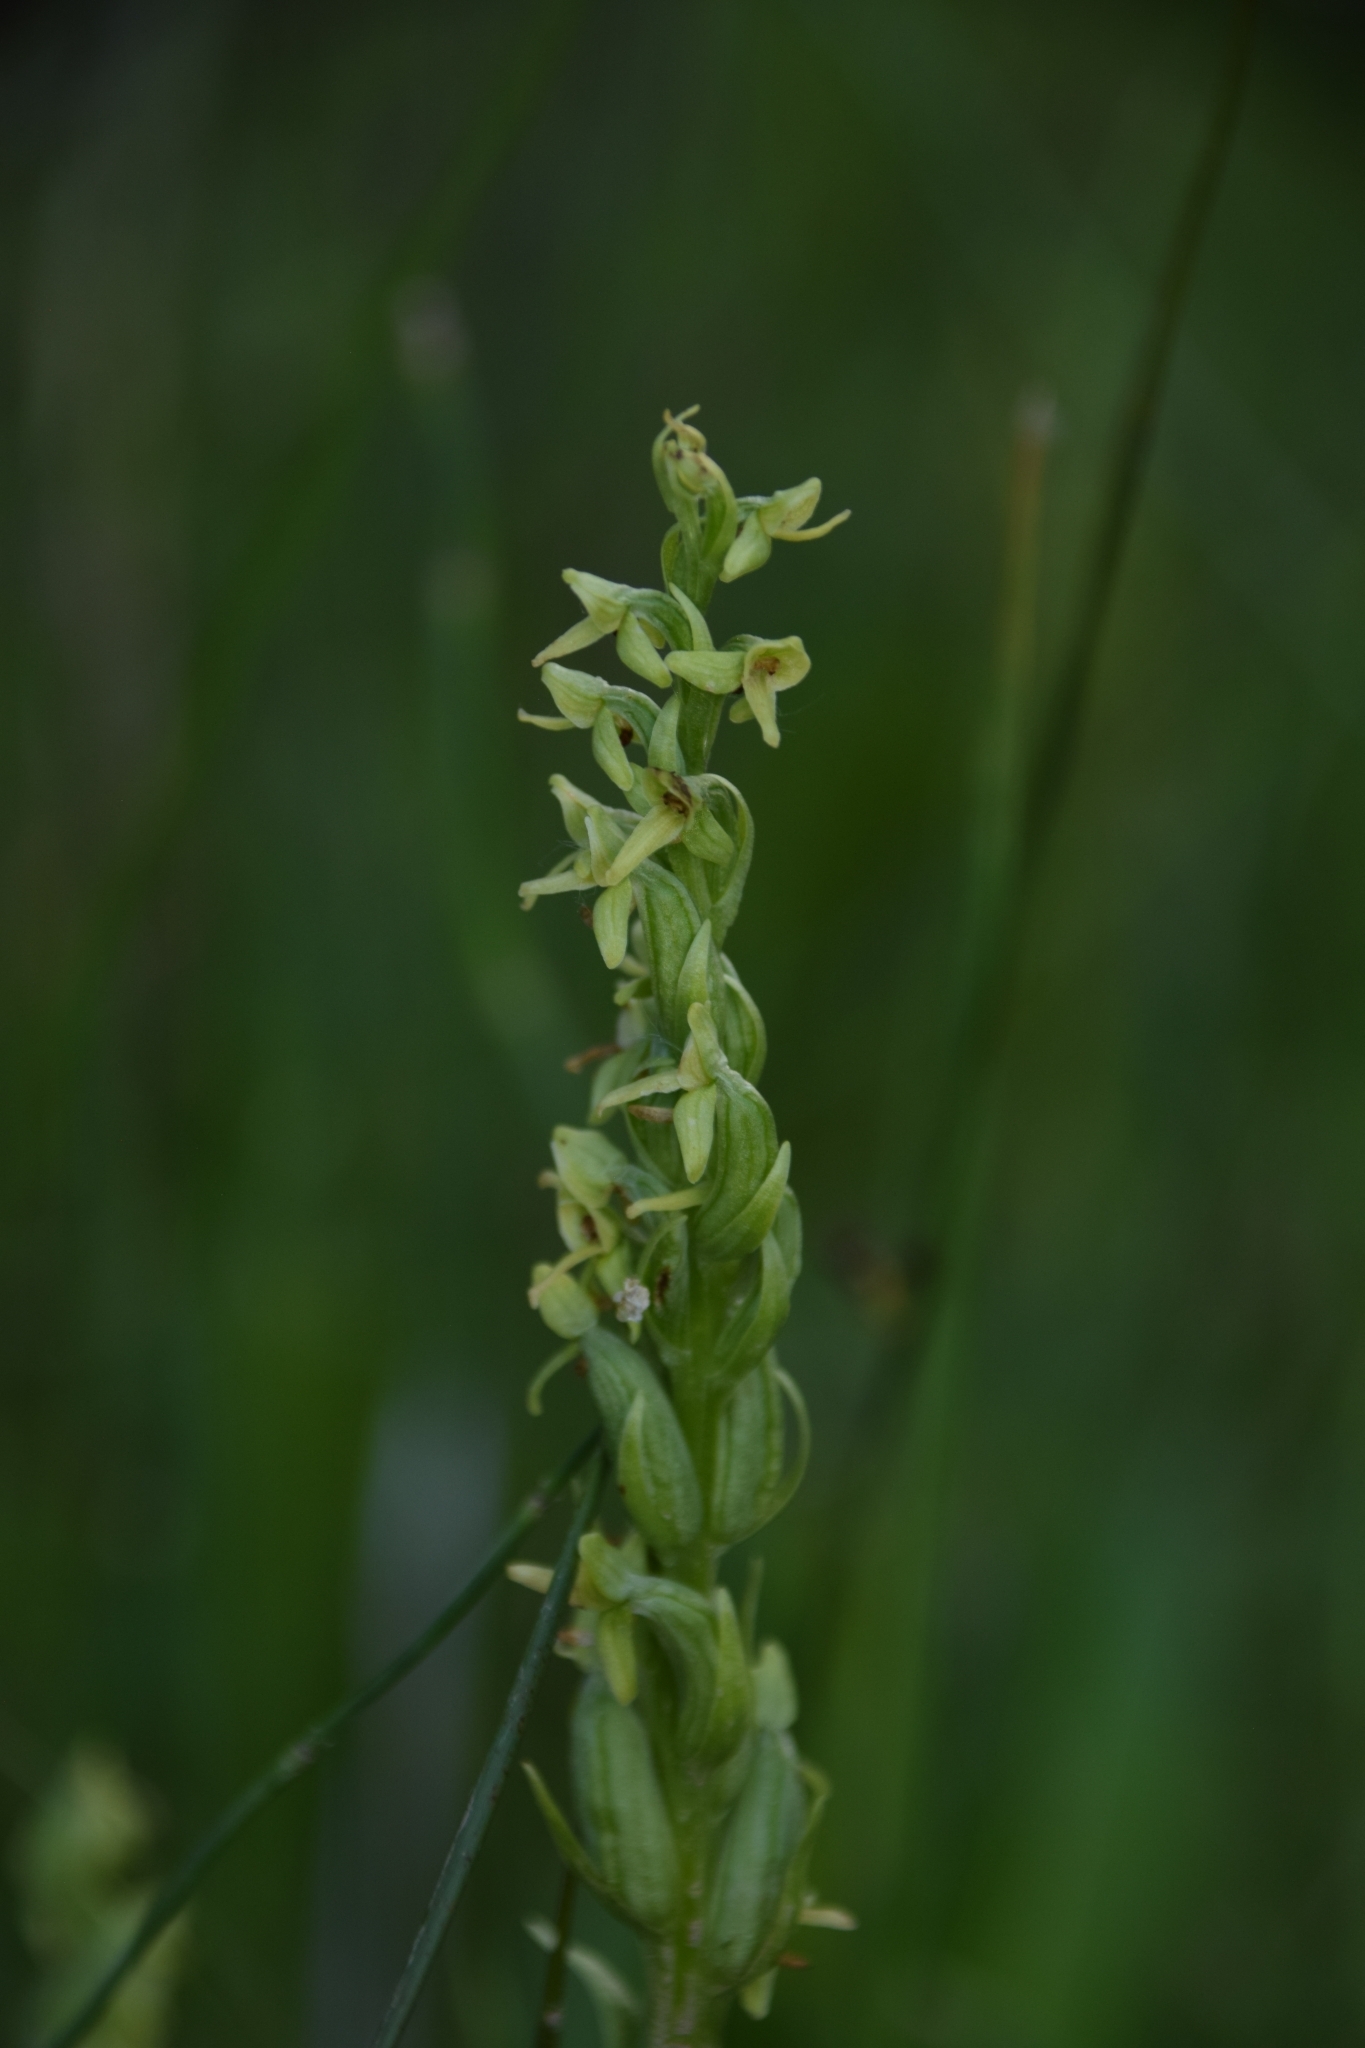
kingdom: Plantae
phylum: Tracheophyta
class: Liliopsida
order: Asparagales
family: Orchidaceae
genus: Platanthera
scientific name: Platanthera huronensis
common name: Fragrant green orchid
